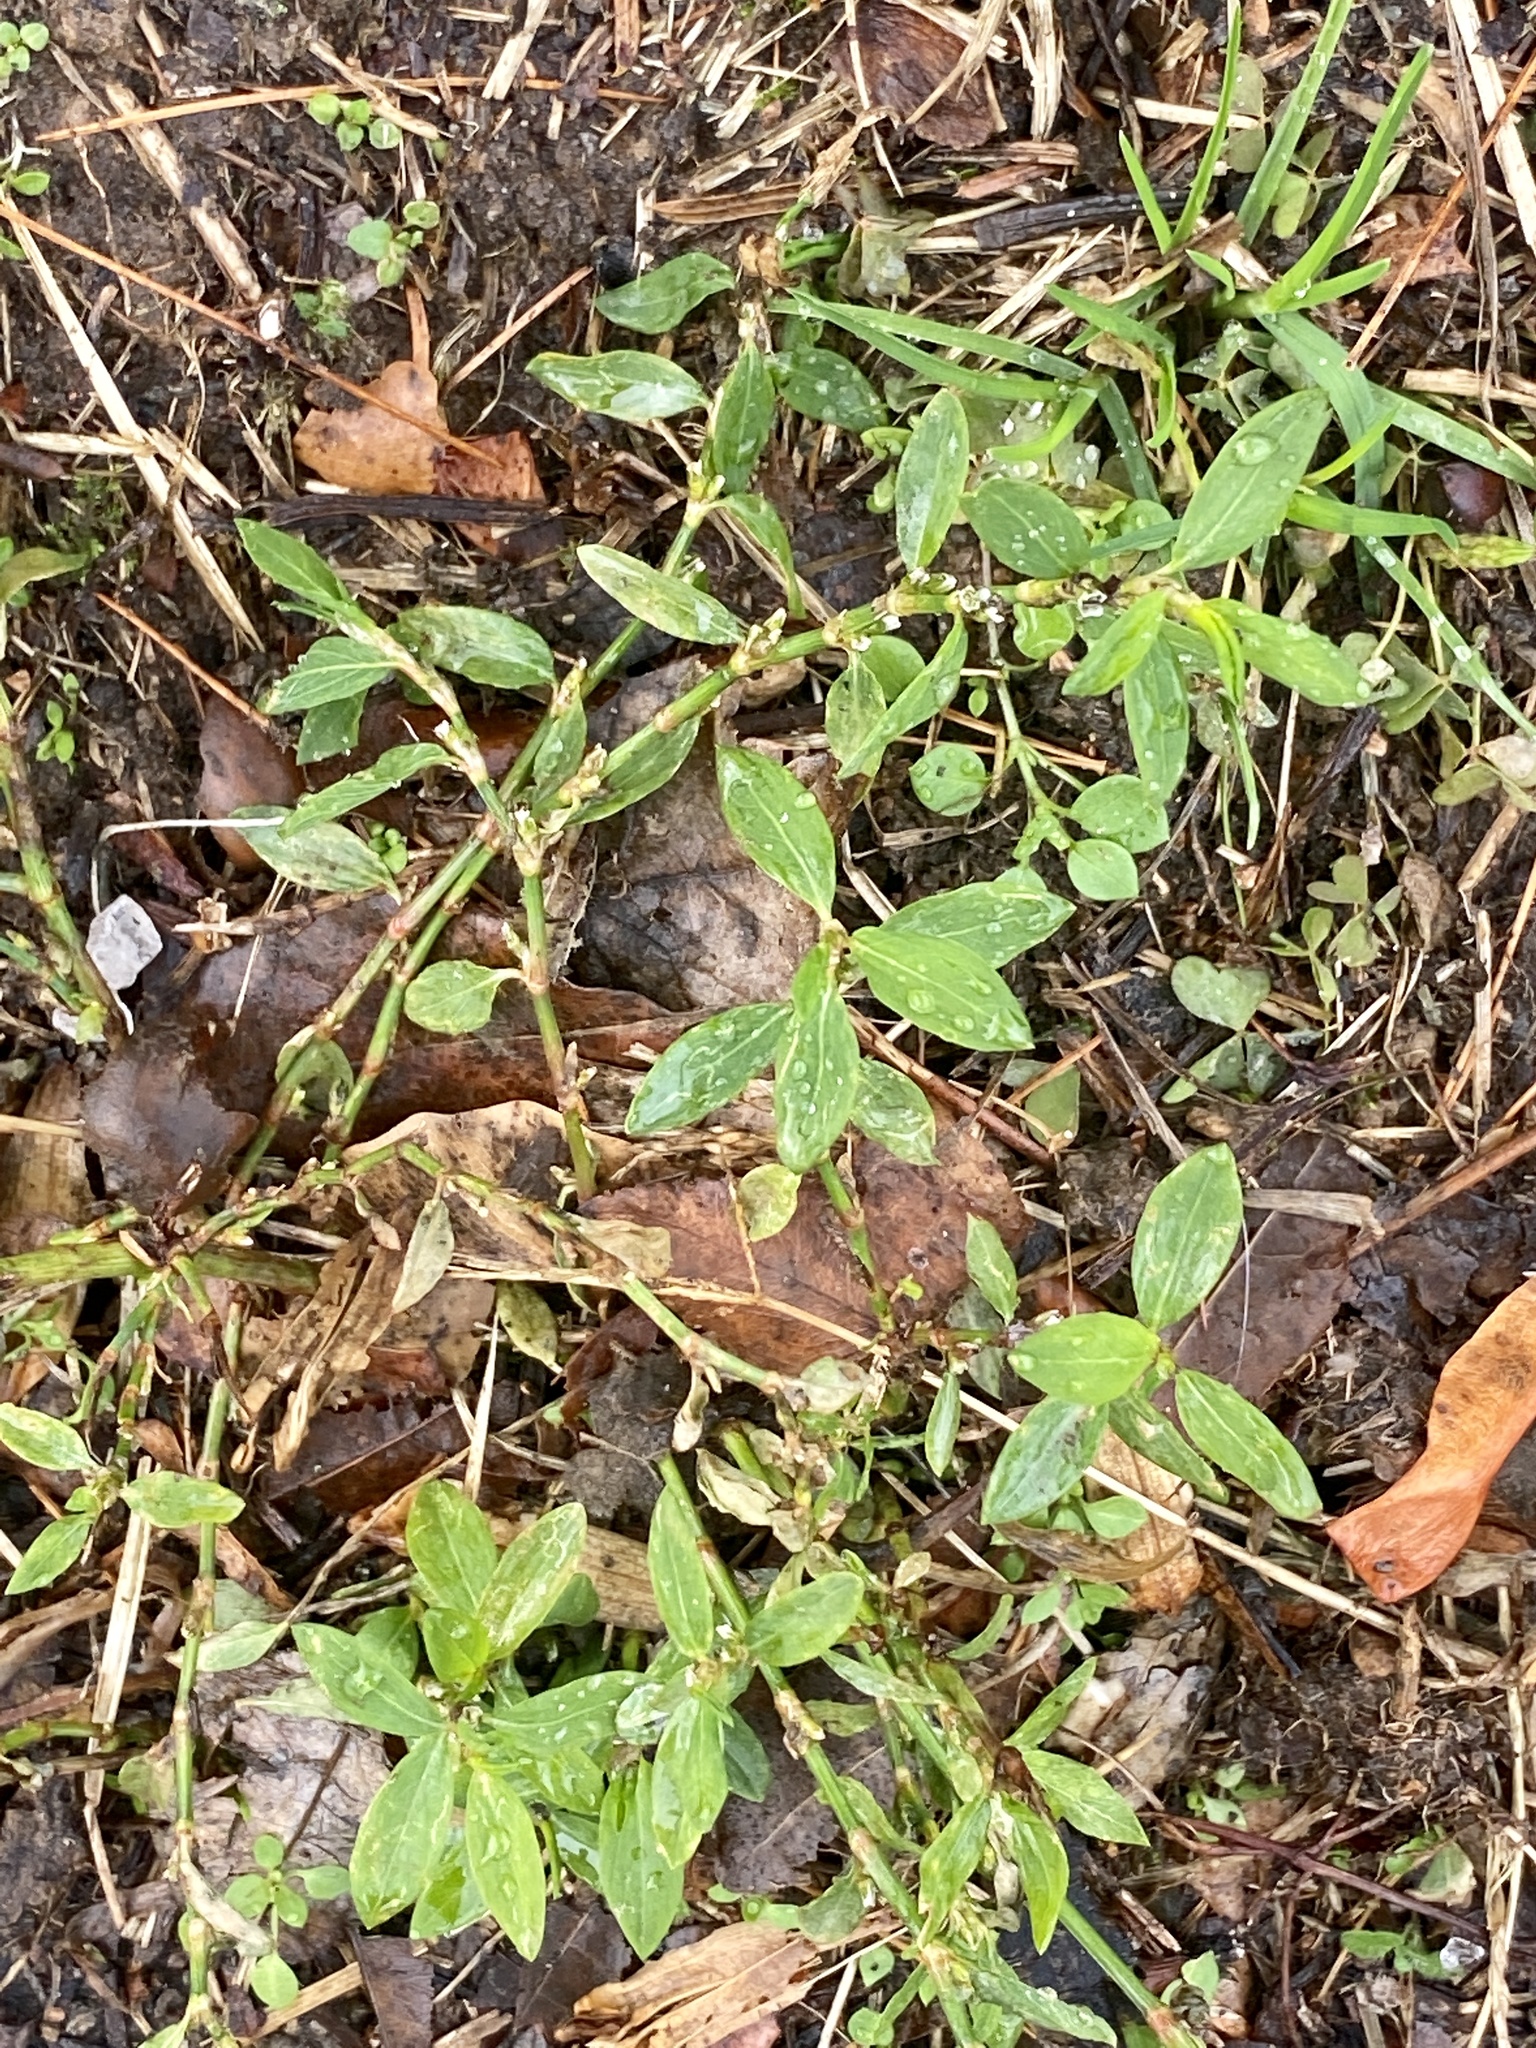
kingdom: Plantae
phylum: Tracheophyta
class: Magnoliopsida
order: Caryophyllales
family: Polygonaceae
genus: Polygonum
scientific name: Polygonum aviculare
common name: Prostrate knotweed
